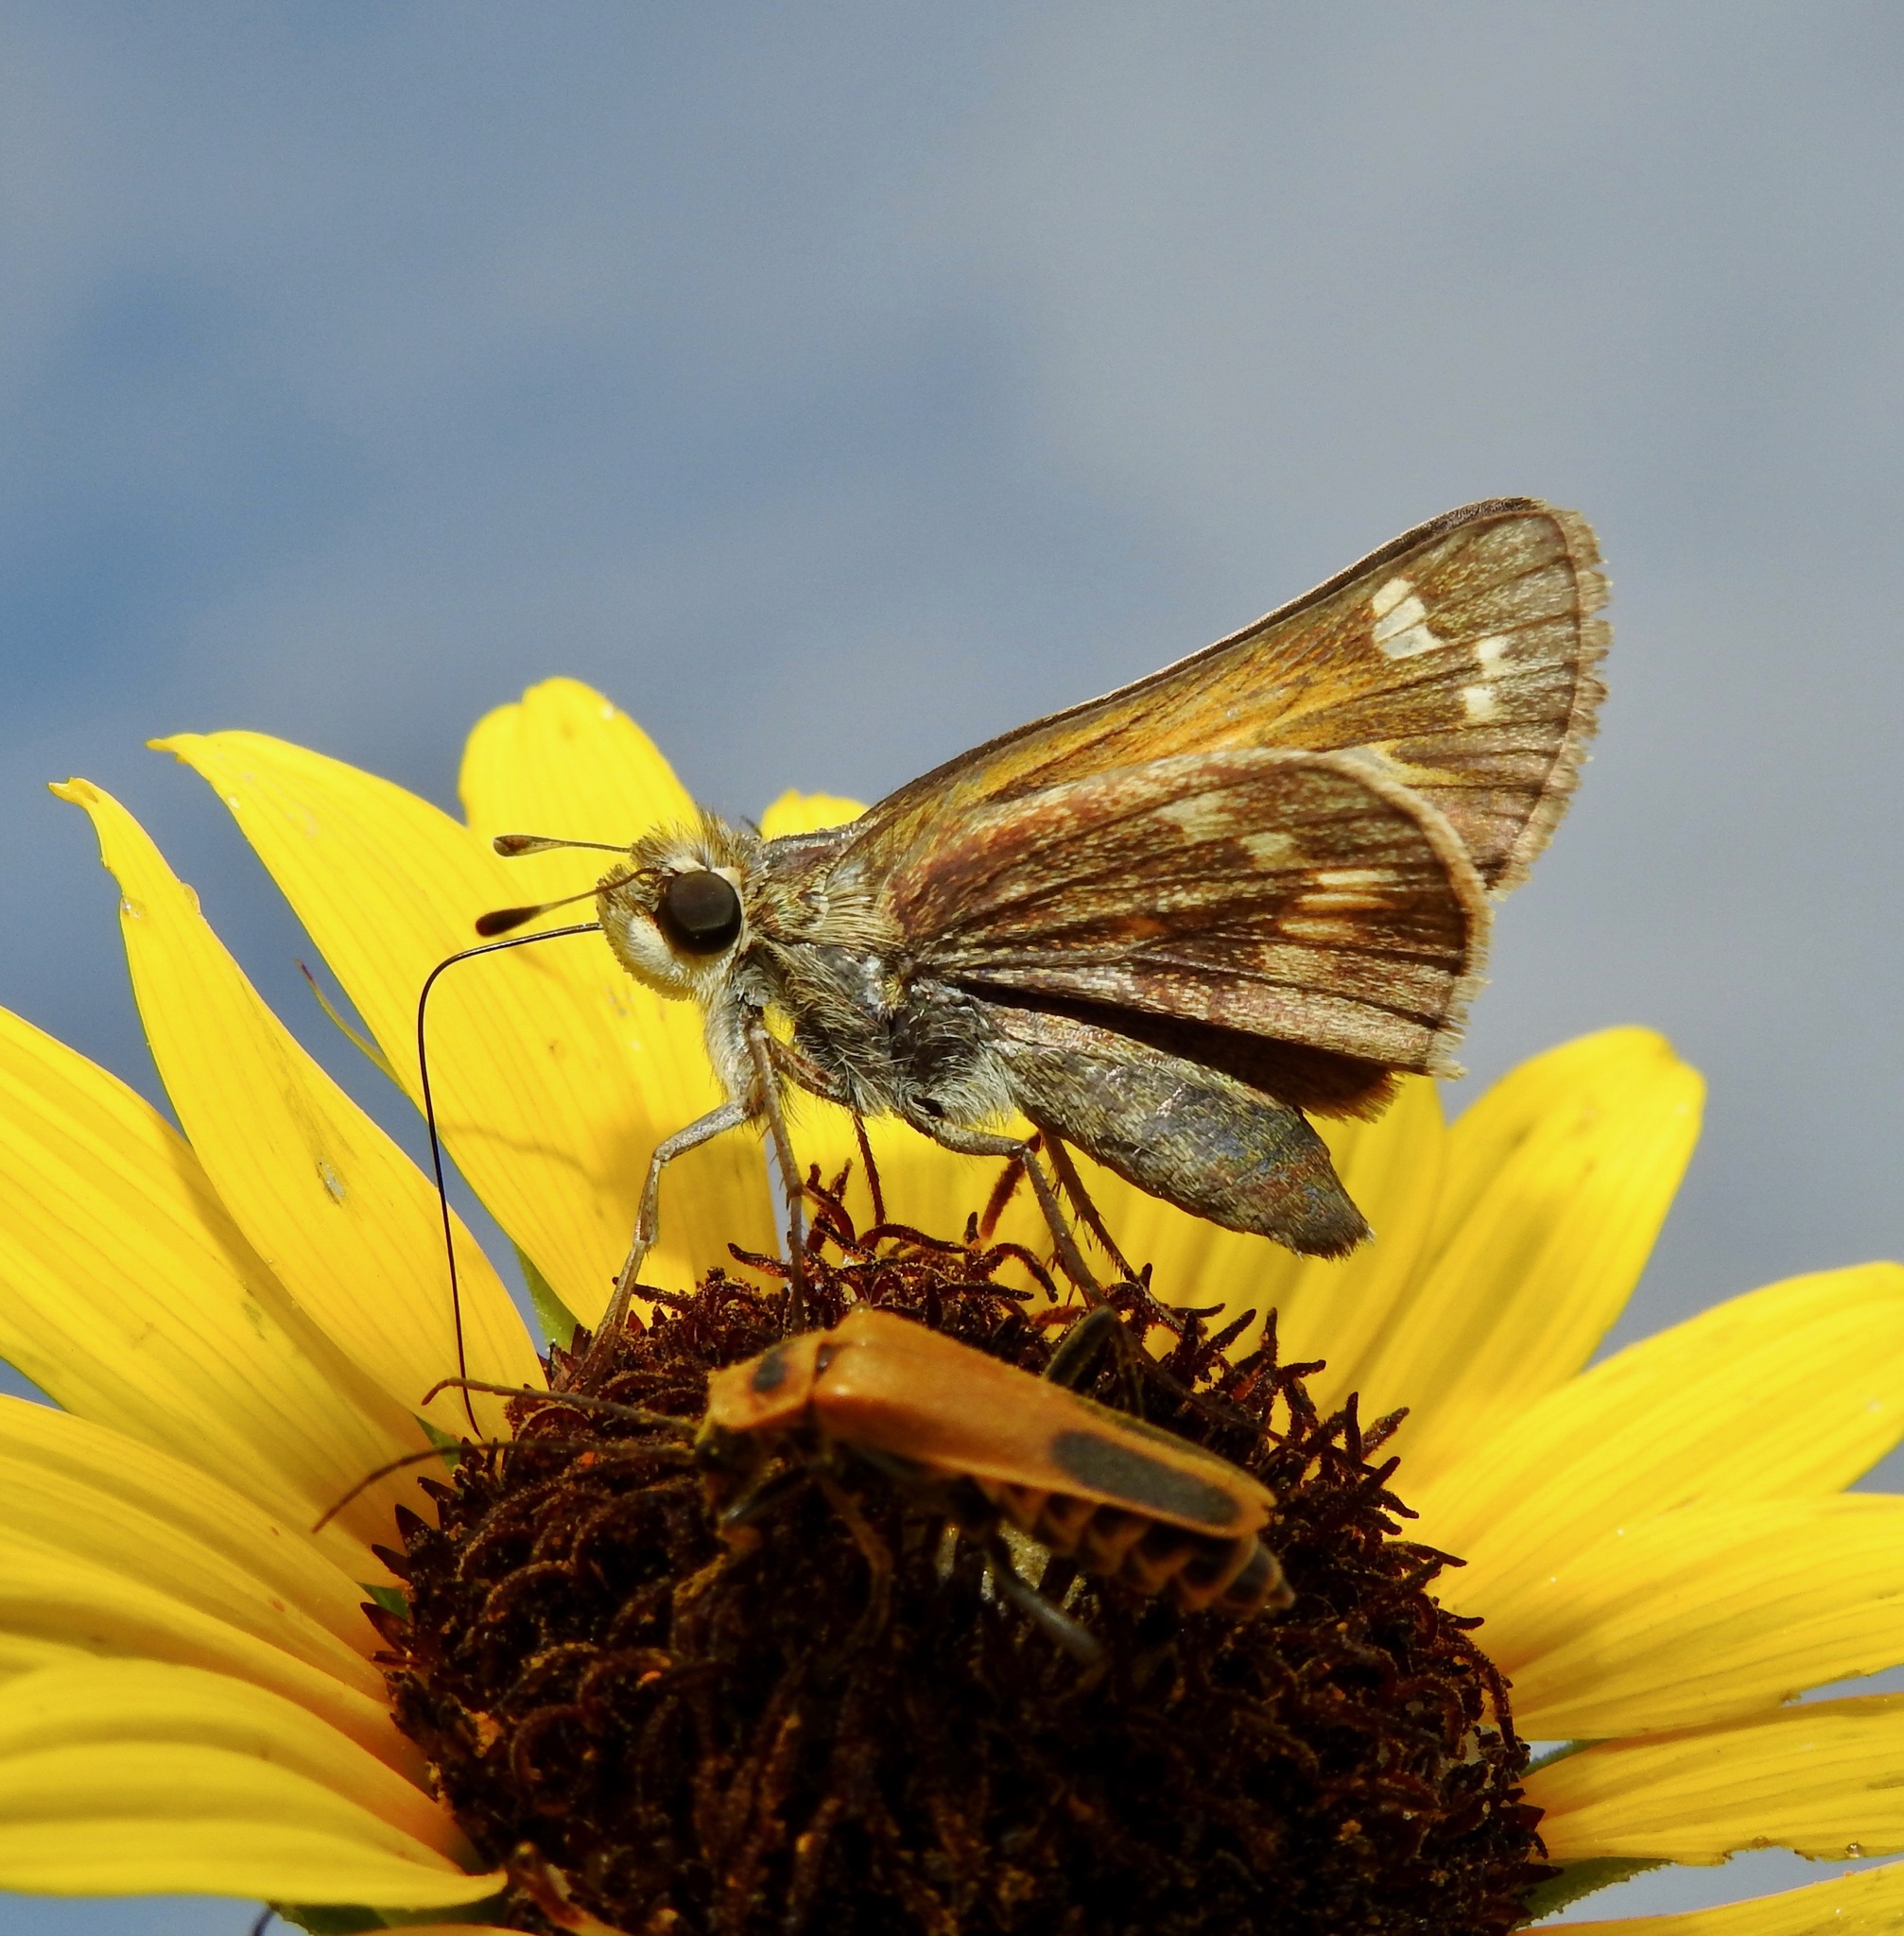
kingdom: Animalia
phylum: Arthropoda
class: Insecta
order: Lepidoptera
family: Hesperiidae
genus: Atalopedes
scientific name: Atalopedes
